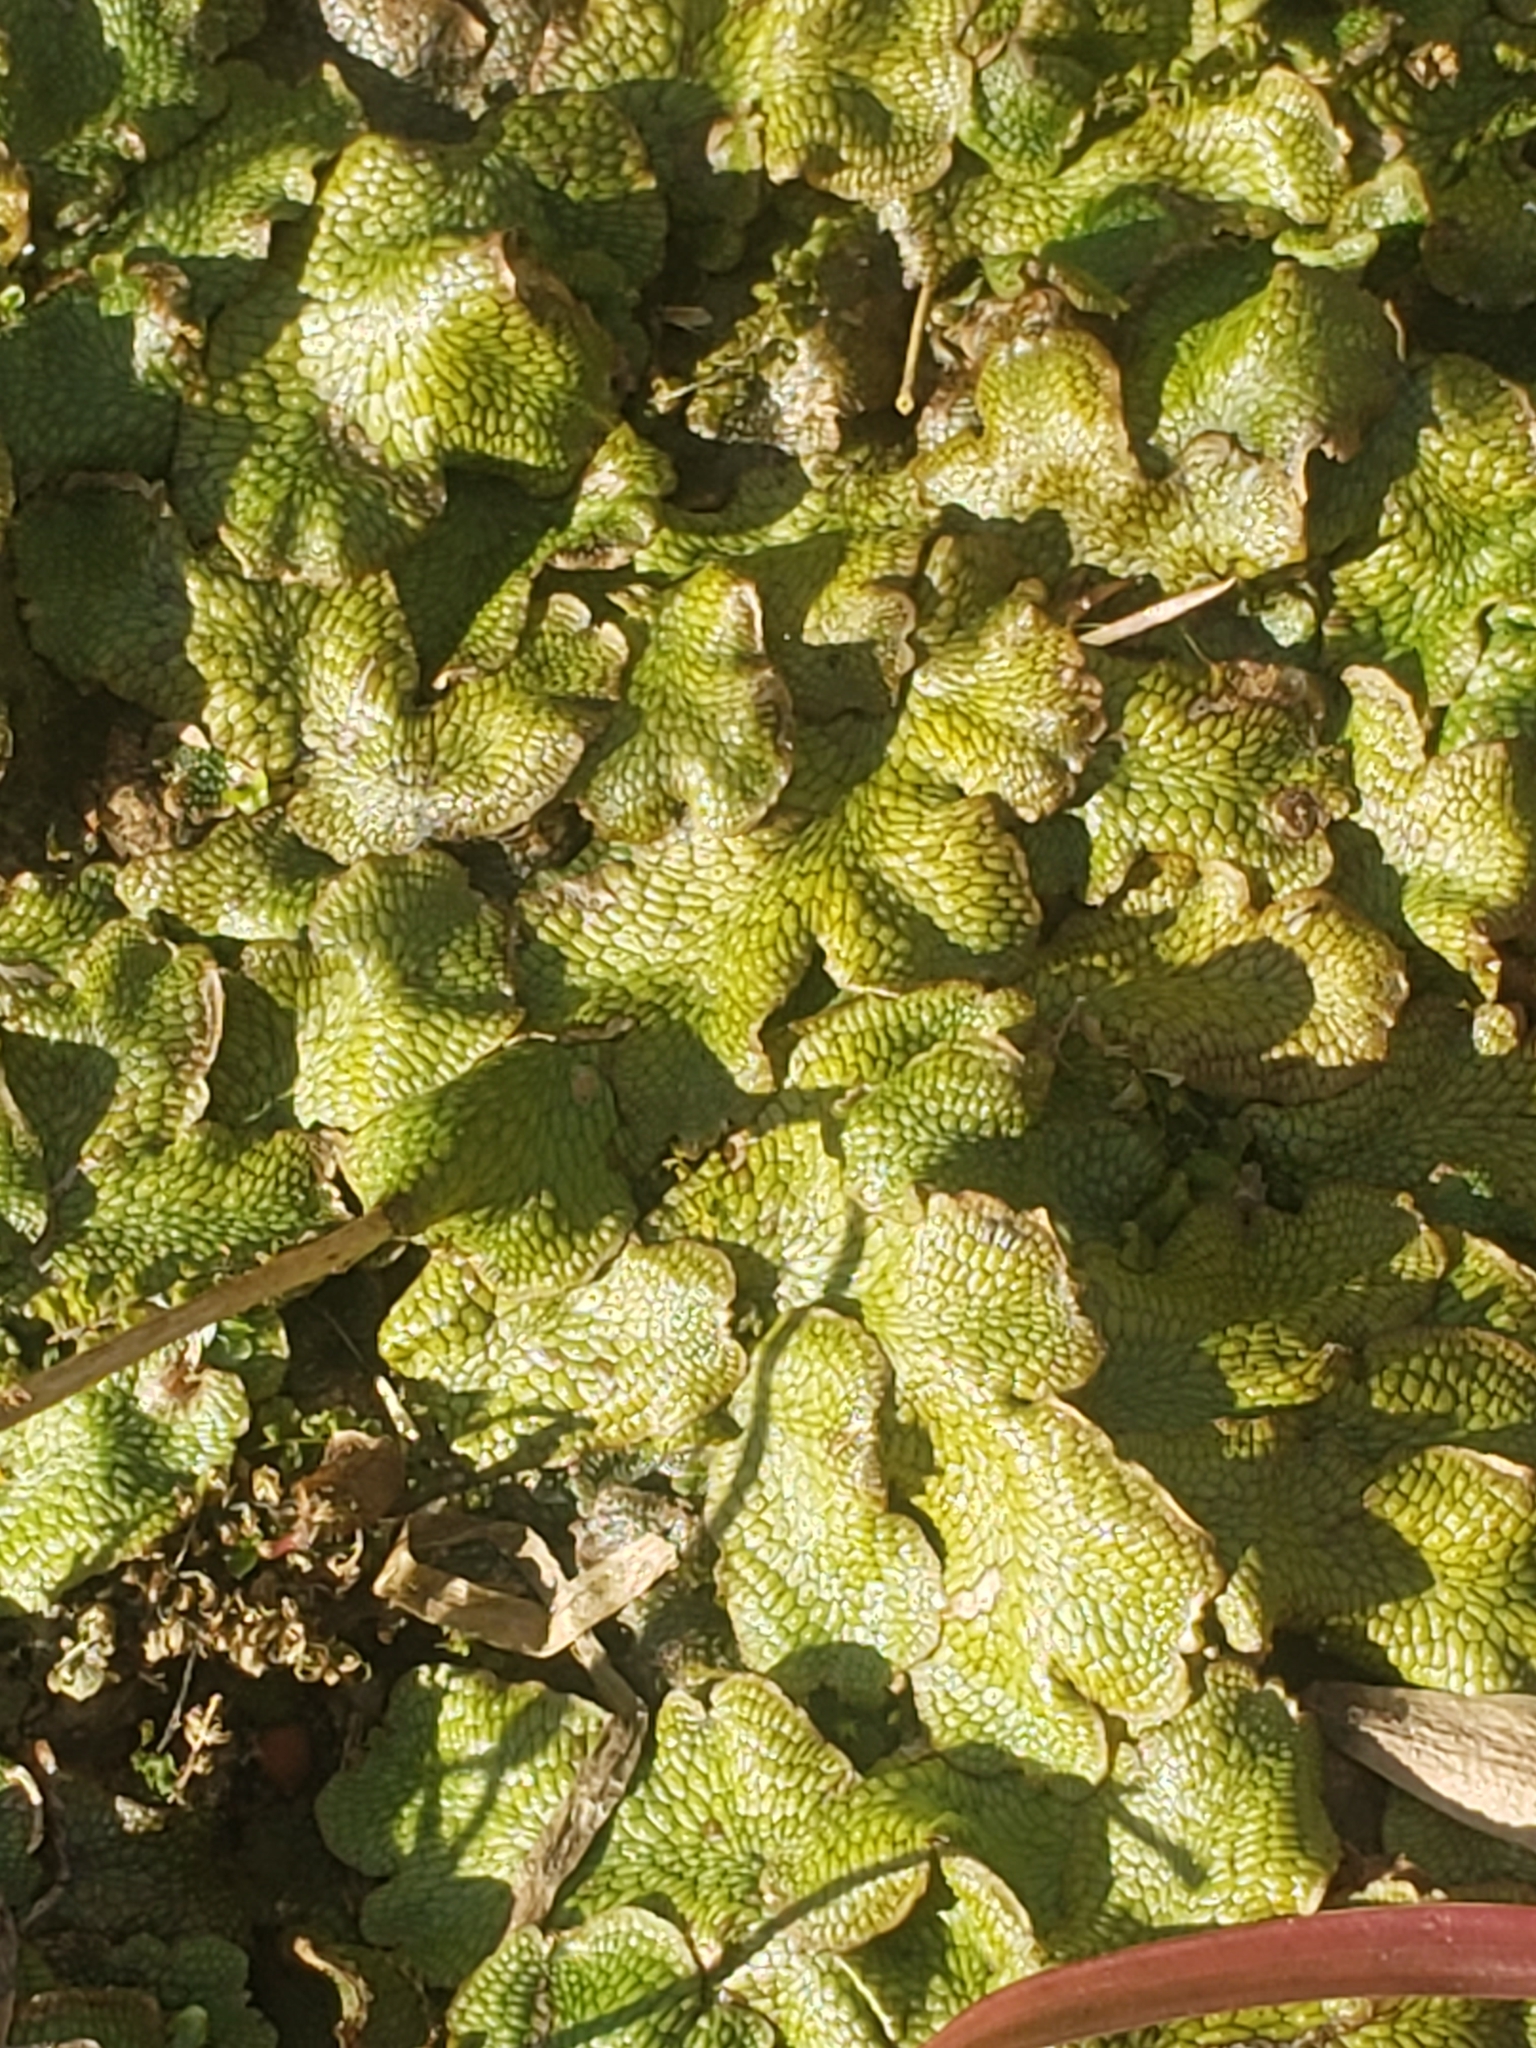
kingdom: Plantae
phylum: Marchantiophyta
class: Marchantiopsida
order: Marchantiales
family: Conocephalaceae
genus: Conocephalum
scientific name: Conocephalum salebrosum
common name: Cat-tongue liverwort
